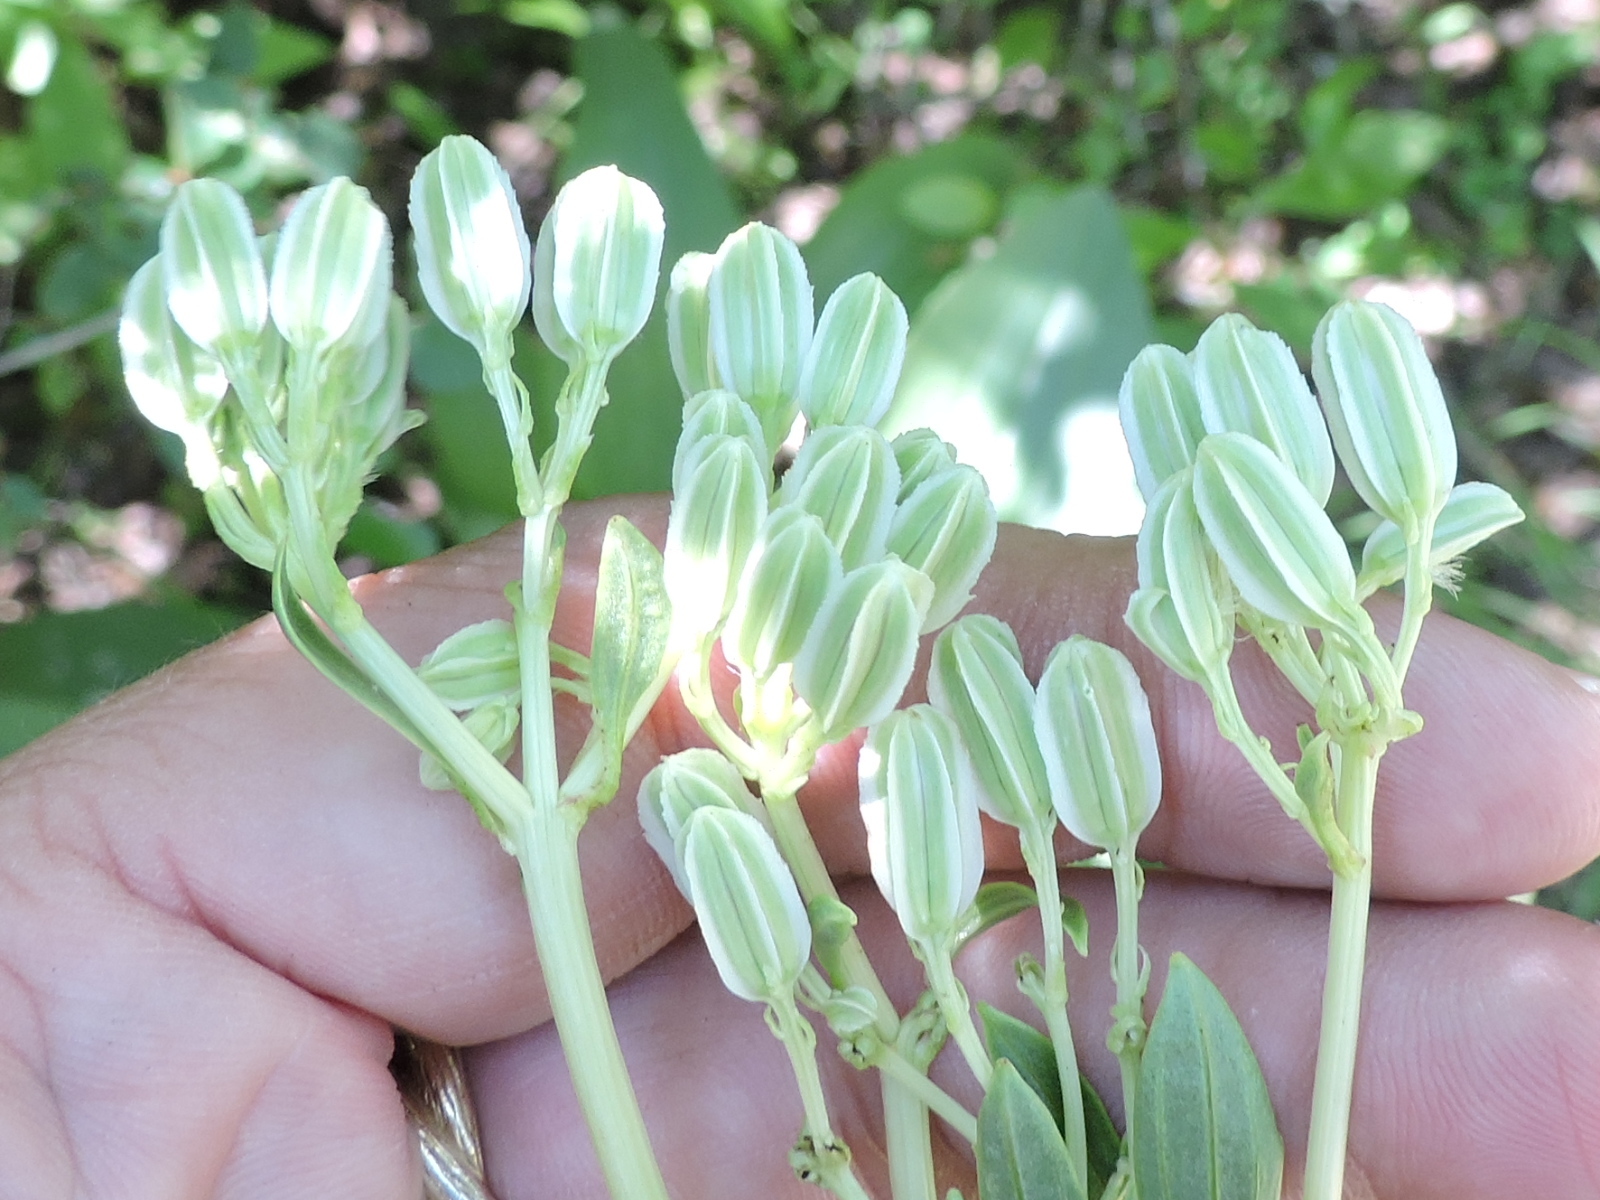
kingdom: Plantae
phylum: Tracheophyta
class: Magnoliopsida
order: Asterales
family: Asteraceae
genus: Arnoglossum
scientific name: Arnoglossum plantagineum
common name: Groove-stemmed indian-plantain
